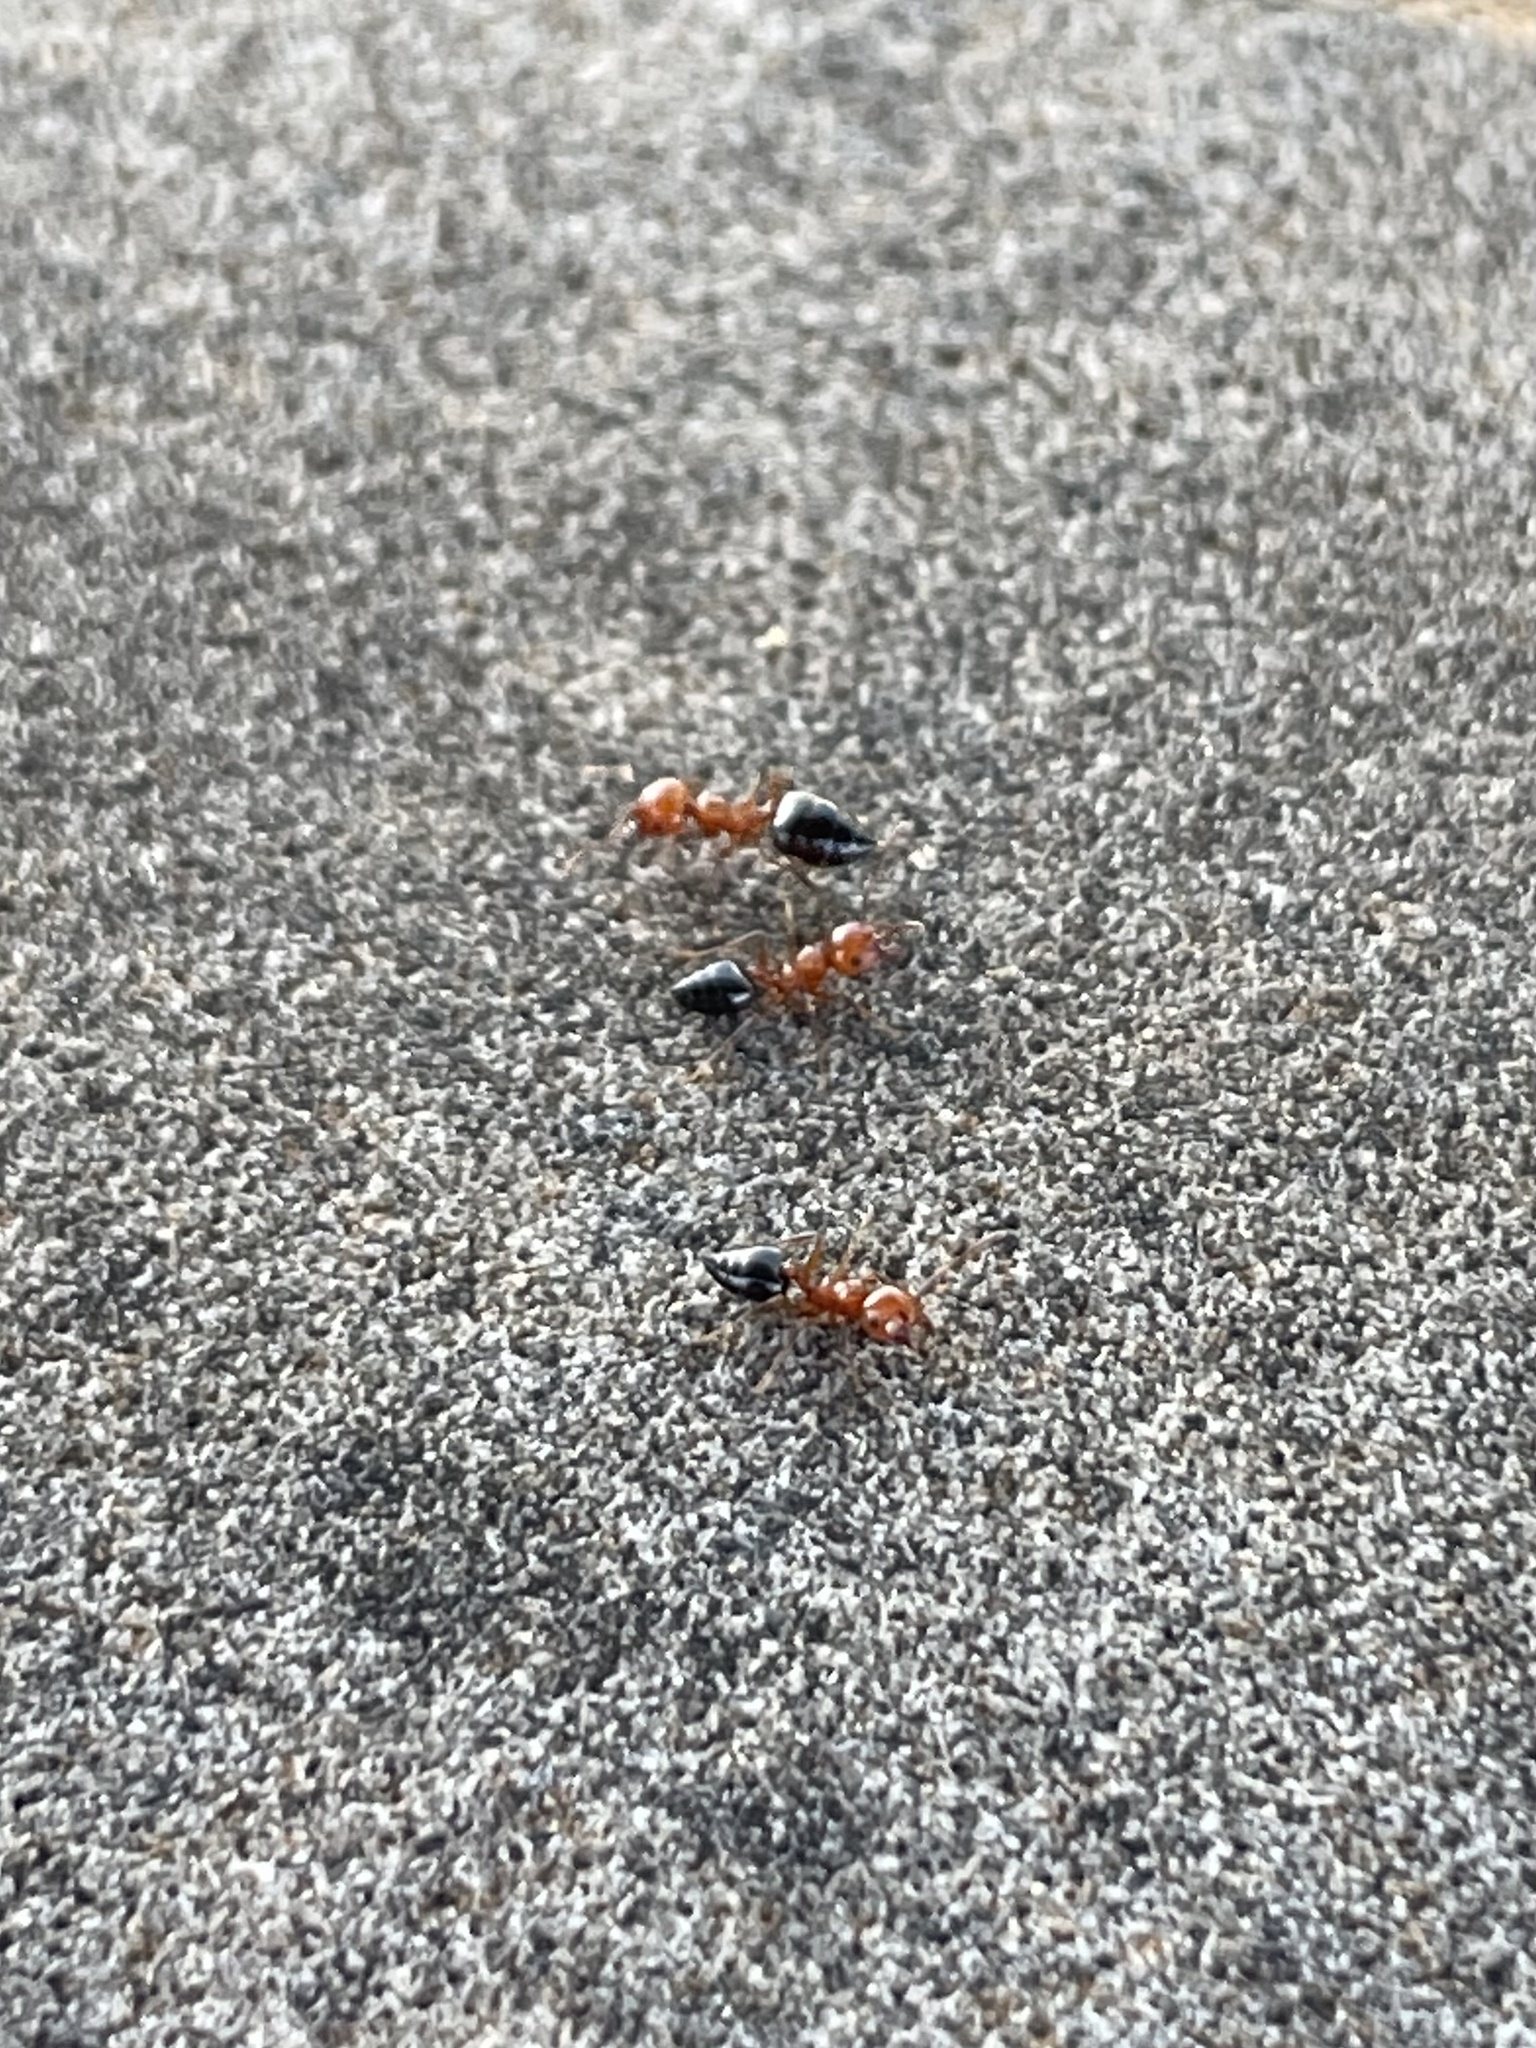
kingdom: Animalia
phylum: Arthropoda
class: Insecta
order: Hymenoptera
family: Formicidae
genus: Crematogaster
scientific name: Crematogaster laeviuscula
